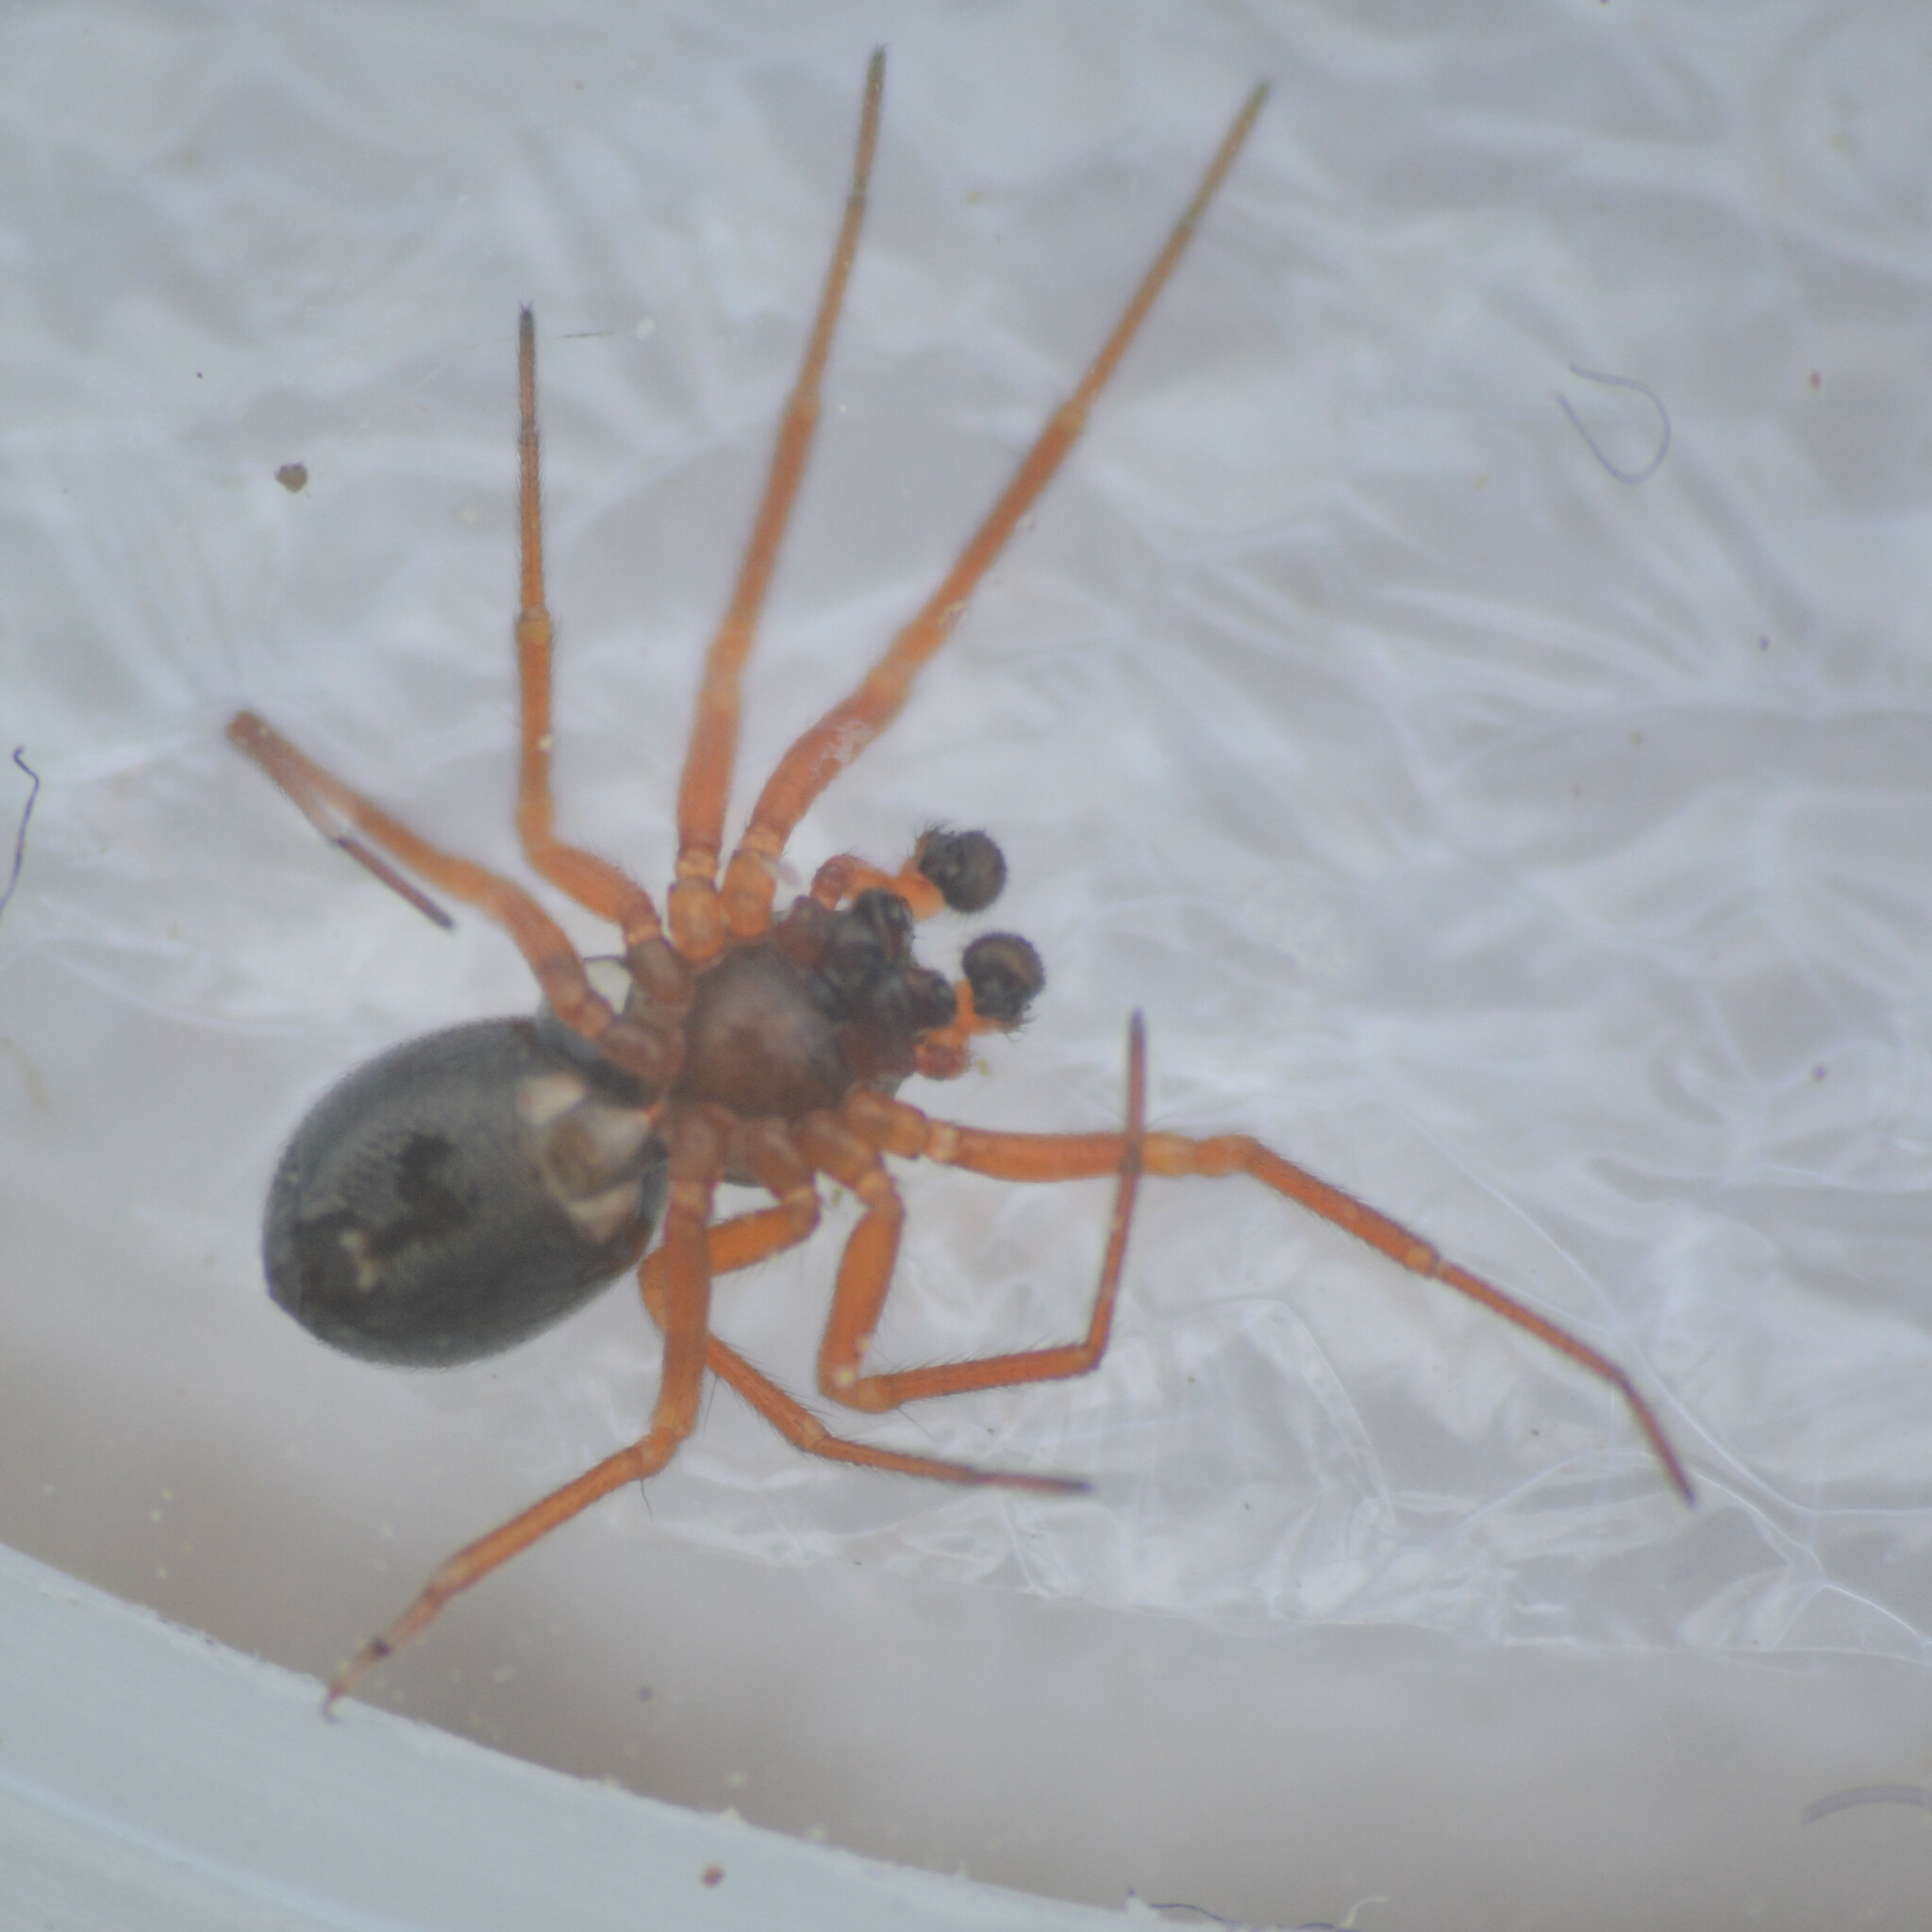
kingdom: Animalia
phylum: Arthropoda
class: Arachnida
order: Araneae
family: Linyphiidae
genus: Gongylidium
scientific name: Gongylidium rufipes
